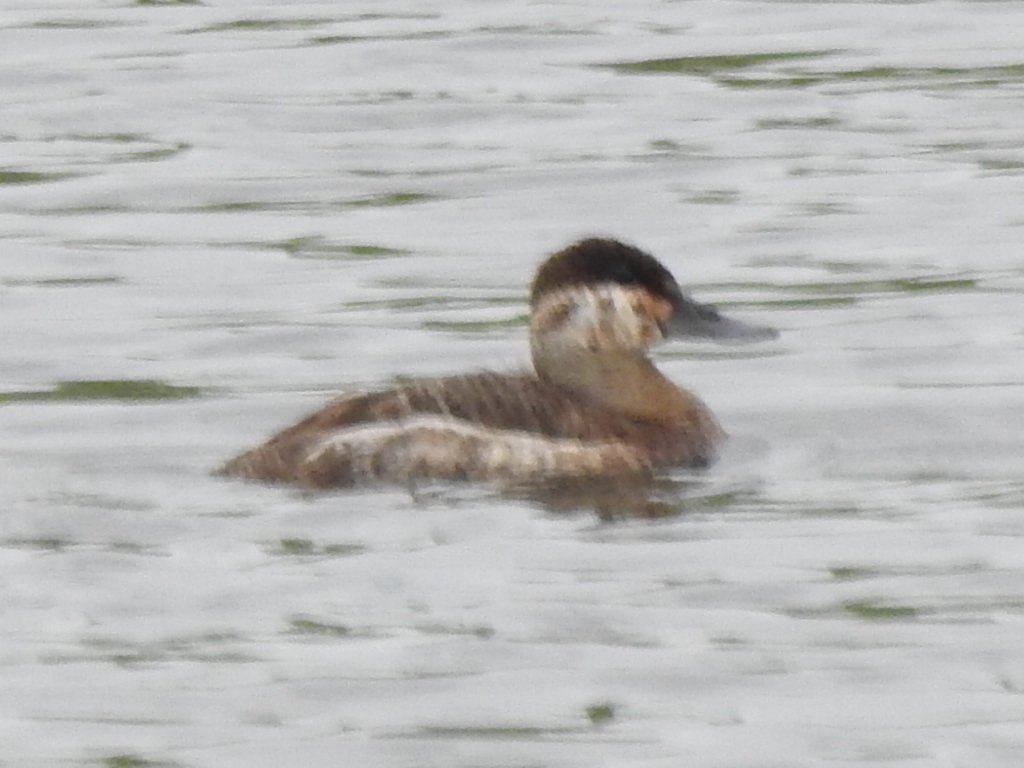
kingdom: Animalia
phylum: Chordata
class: Aves
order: Anseriformes
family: Anatidae
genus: Oxyura
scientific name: Oxyura jamaicensis
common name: Ruddy duck
